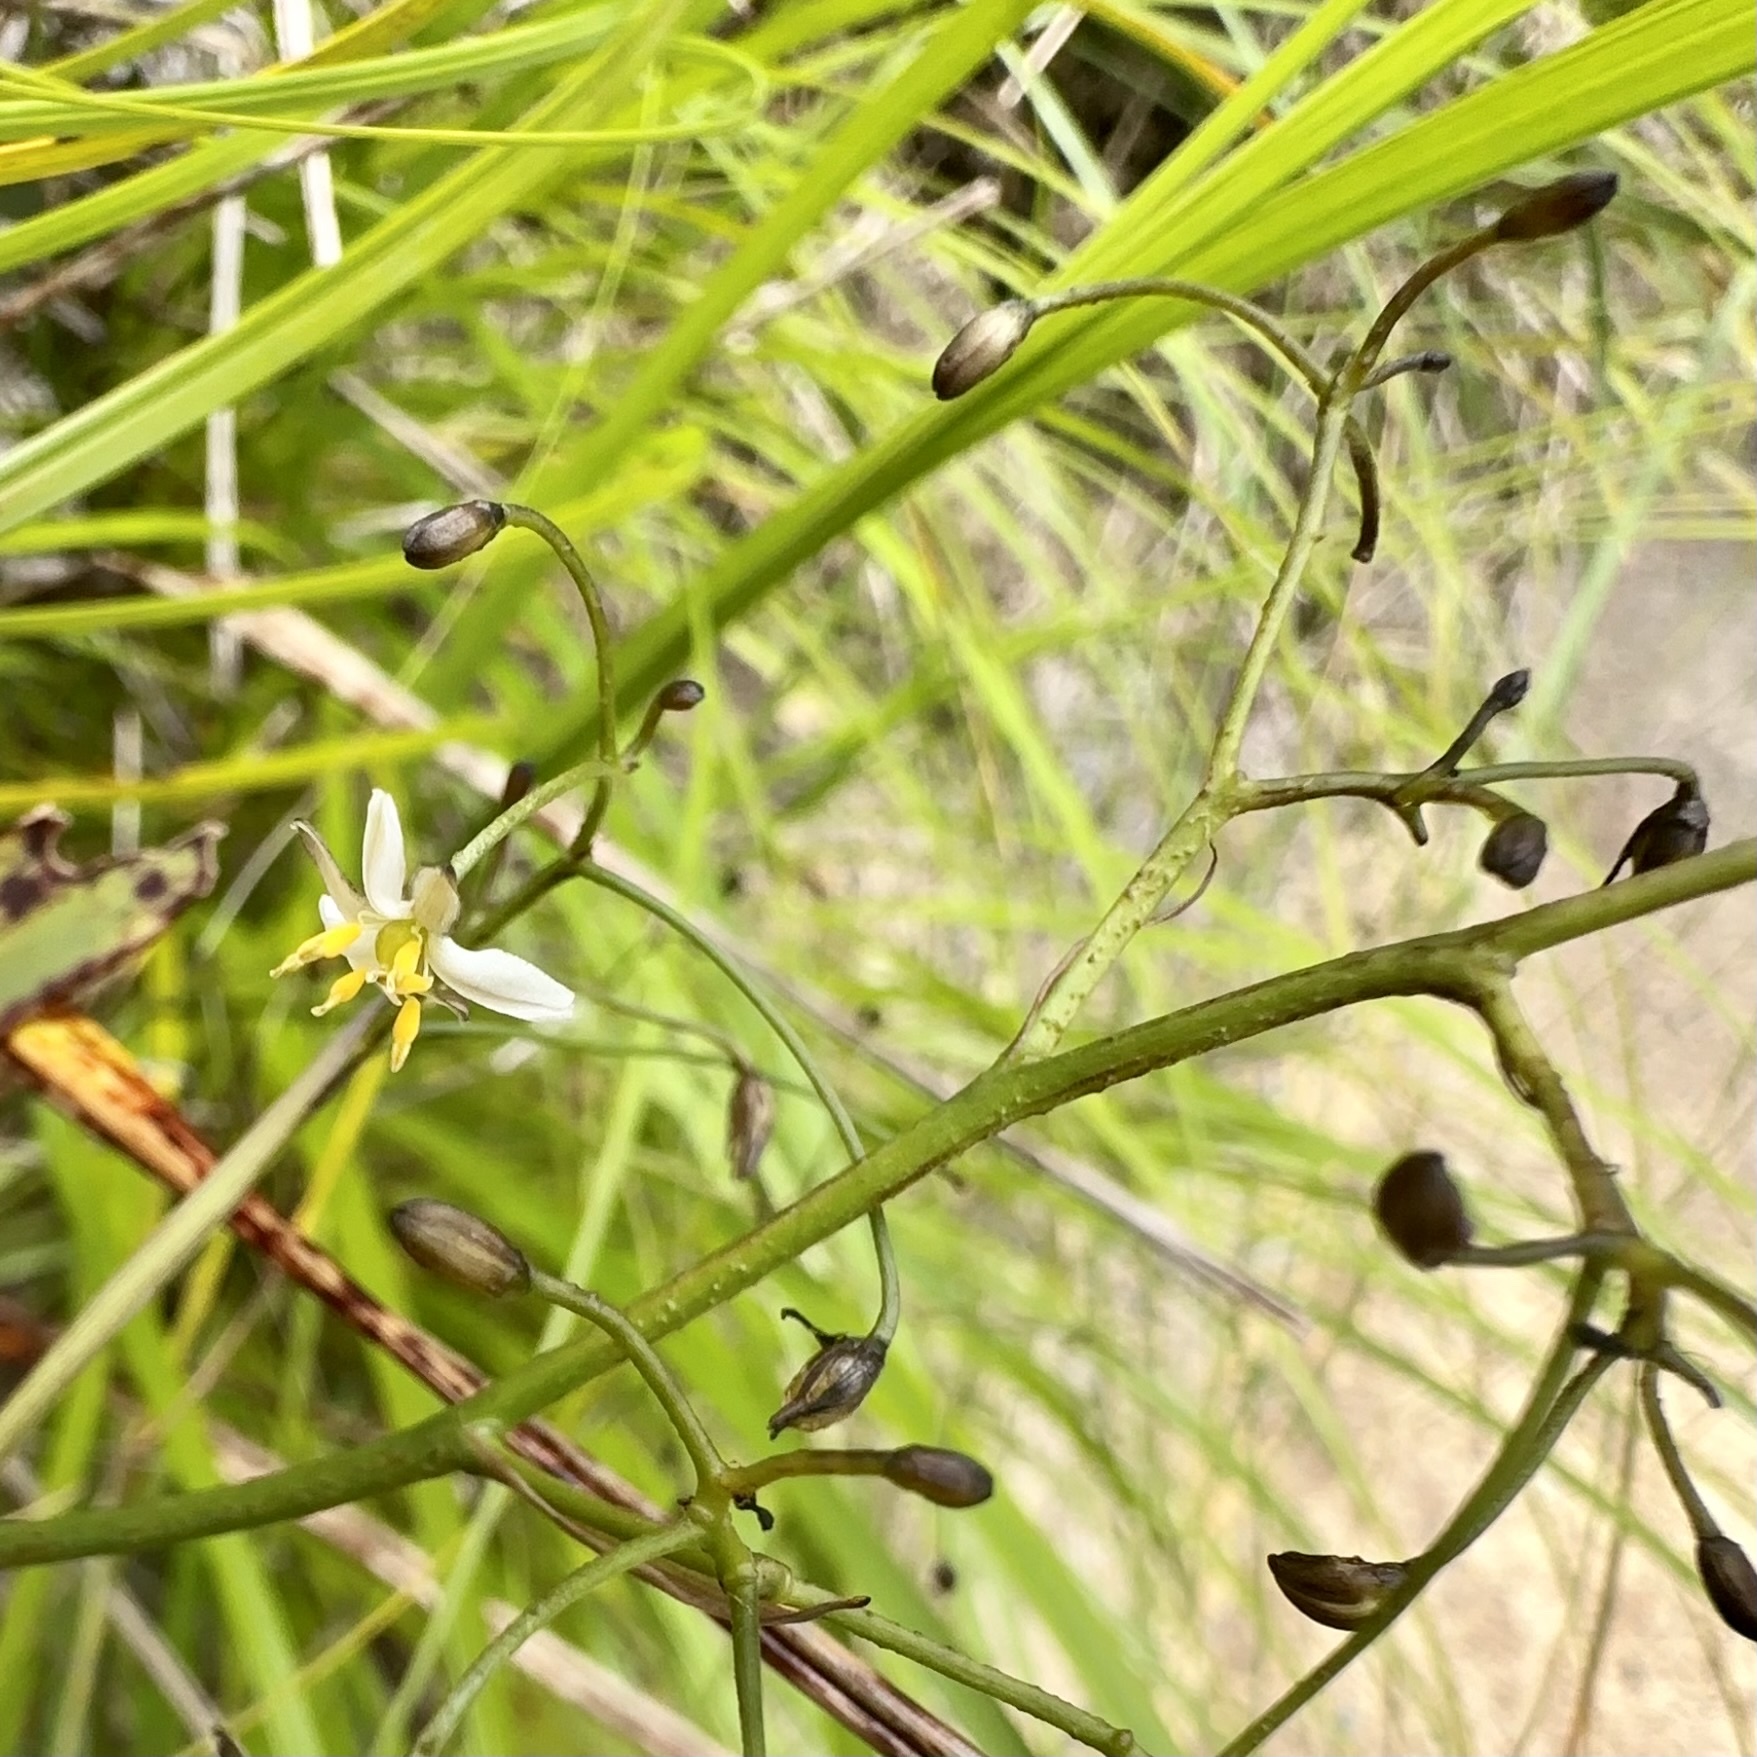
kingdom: Plantae
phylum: Tracheophyta
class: Liliopsida
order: Asparagales
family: Asphodelaceae
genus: Dianella
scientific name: Dianella nigra
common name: New zealand-blueberry
